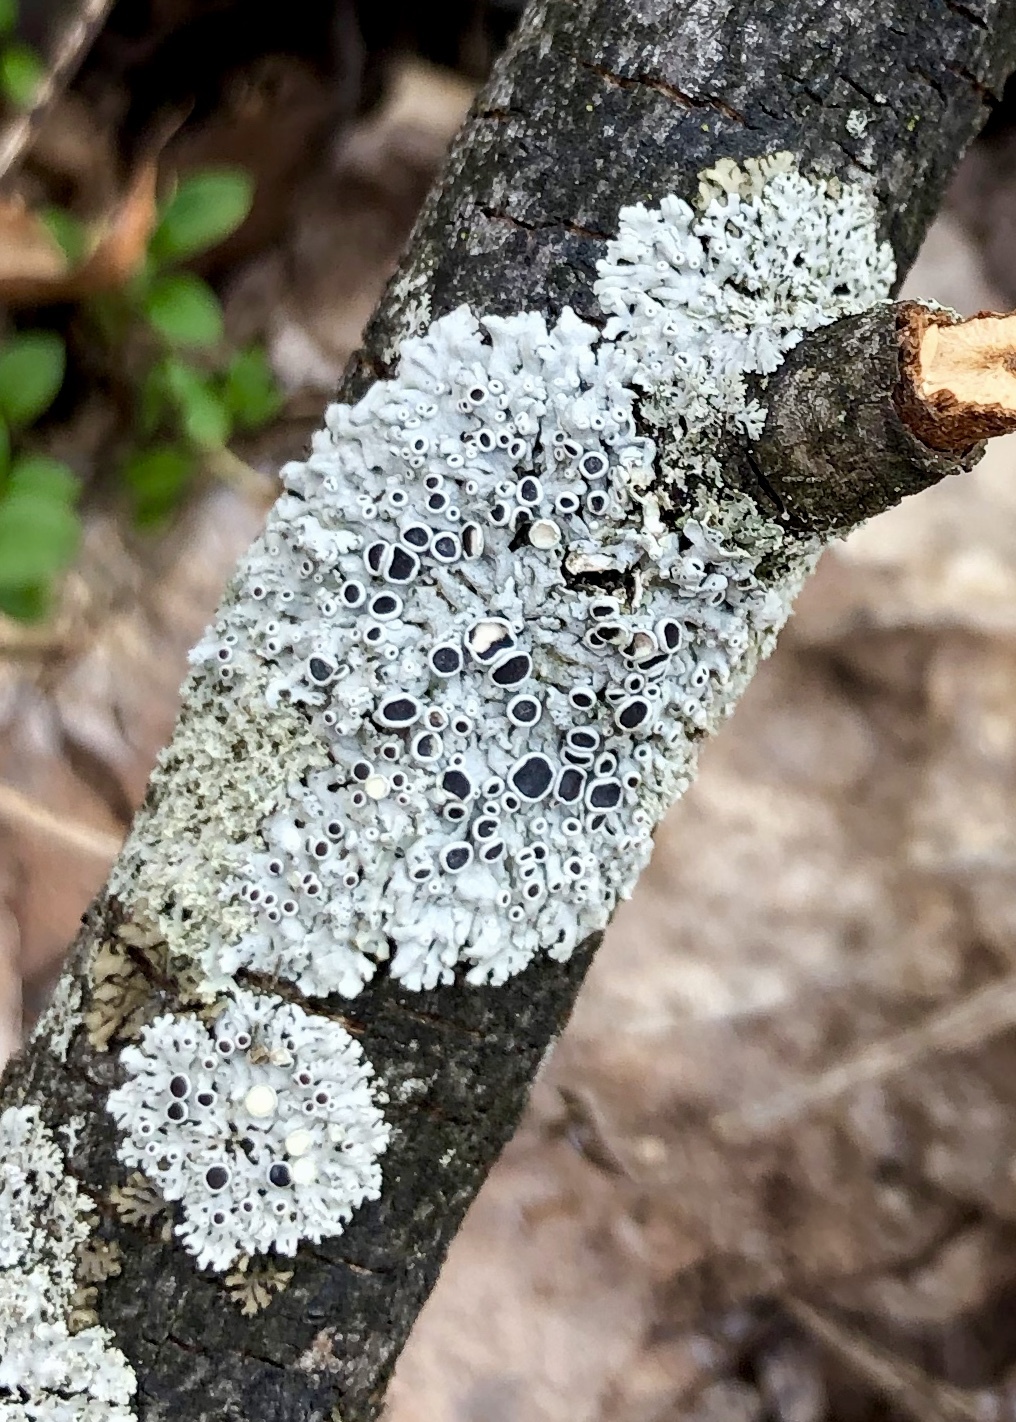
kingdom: Fungi
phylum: Ascomycota
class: Lecanoromycetes
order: Caliciales
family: Physciaceae
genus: Physcia
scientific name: Physcia millegrana
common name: Rosette lichen
